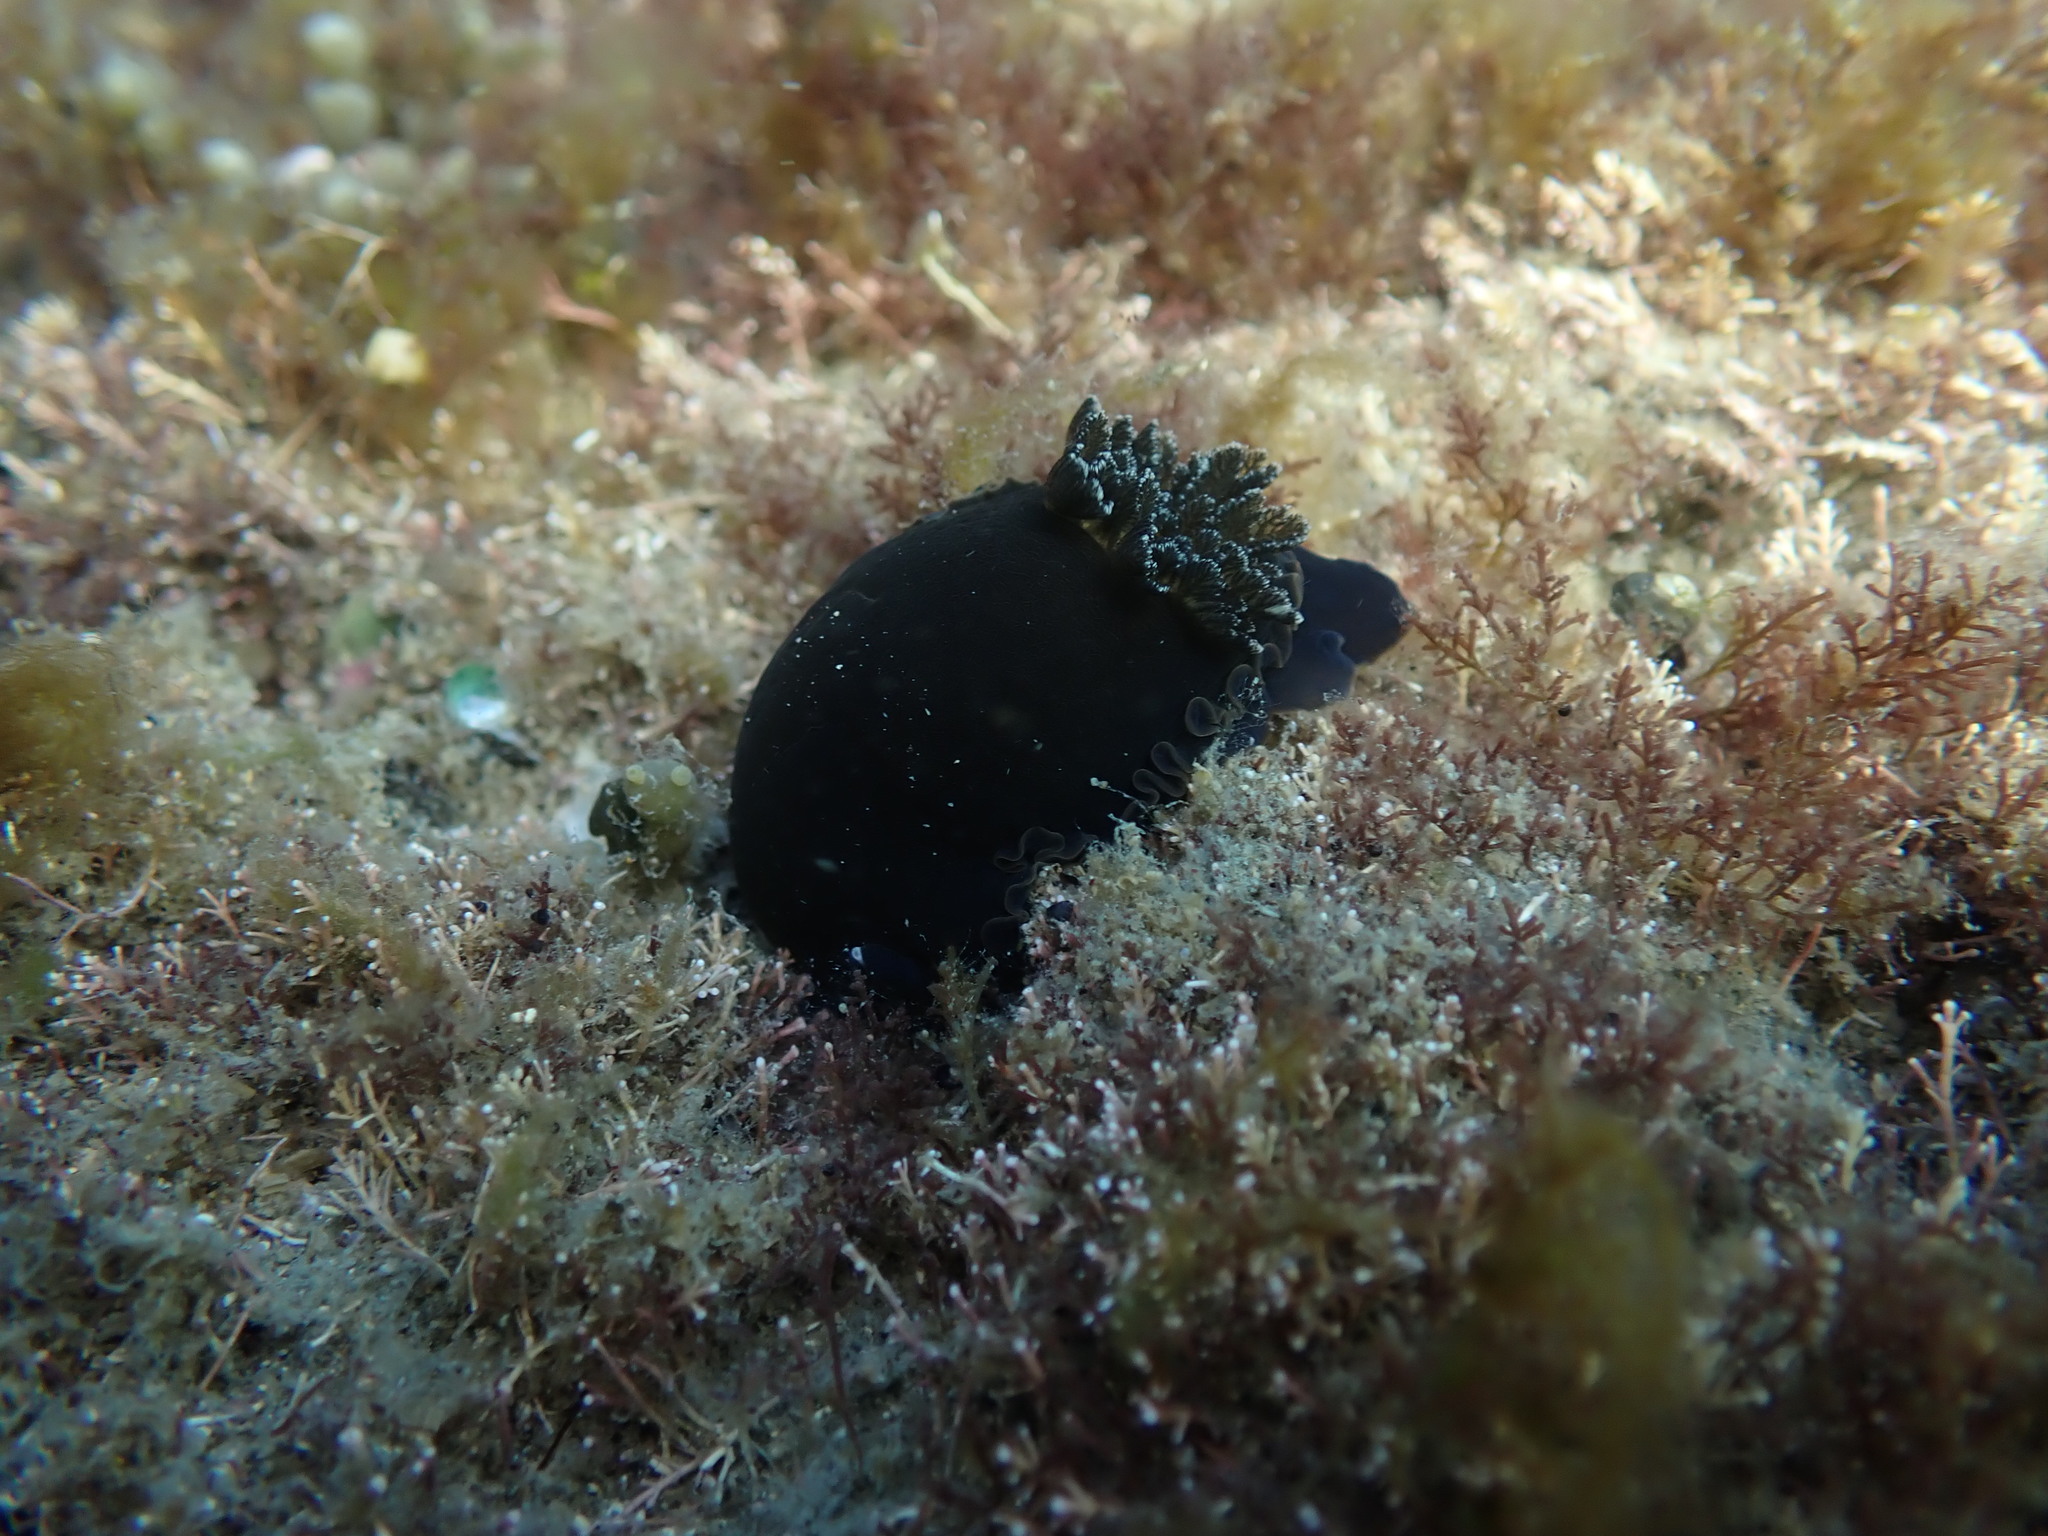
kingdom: Animalia
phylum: Mollusca
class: Gastropoda
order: Nudibranchia
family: Dendrodorididae
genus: Dendrodoris
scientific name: Dendrodoris nigra
